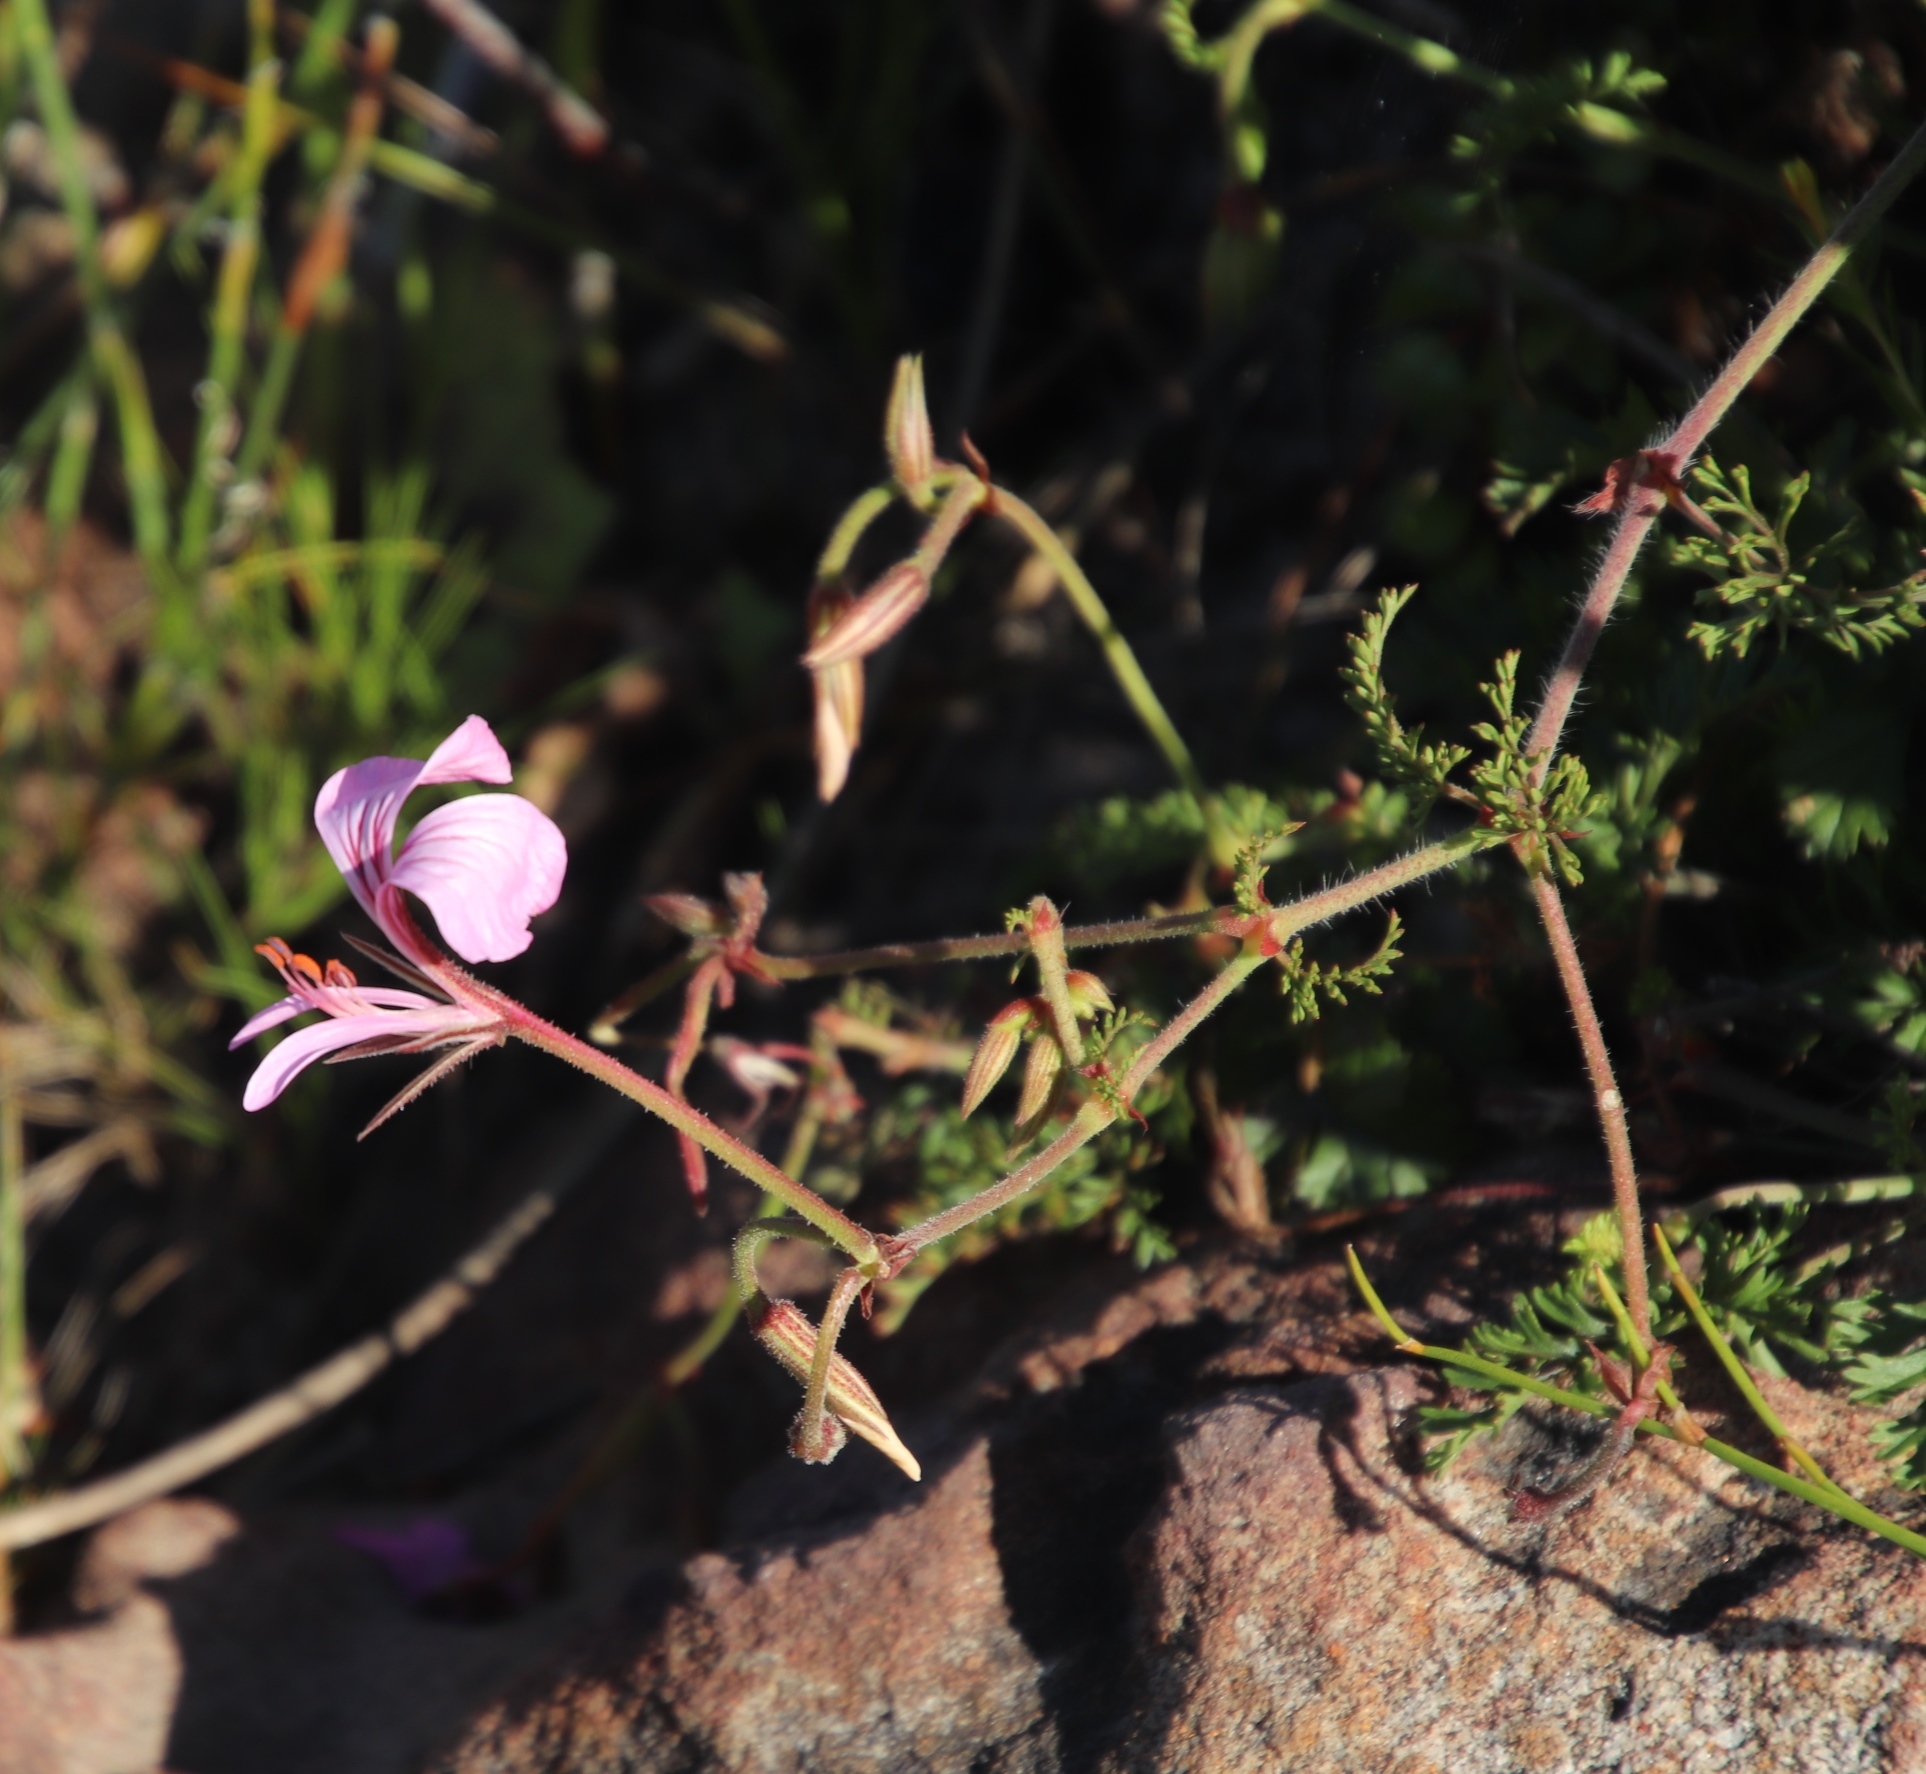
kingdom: Plantae
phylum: Tracheophyta
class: Magnoliopsida
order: Geraniales
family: Geraniaceae
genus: Pelargonium
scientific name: Pelargonium longicaule
